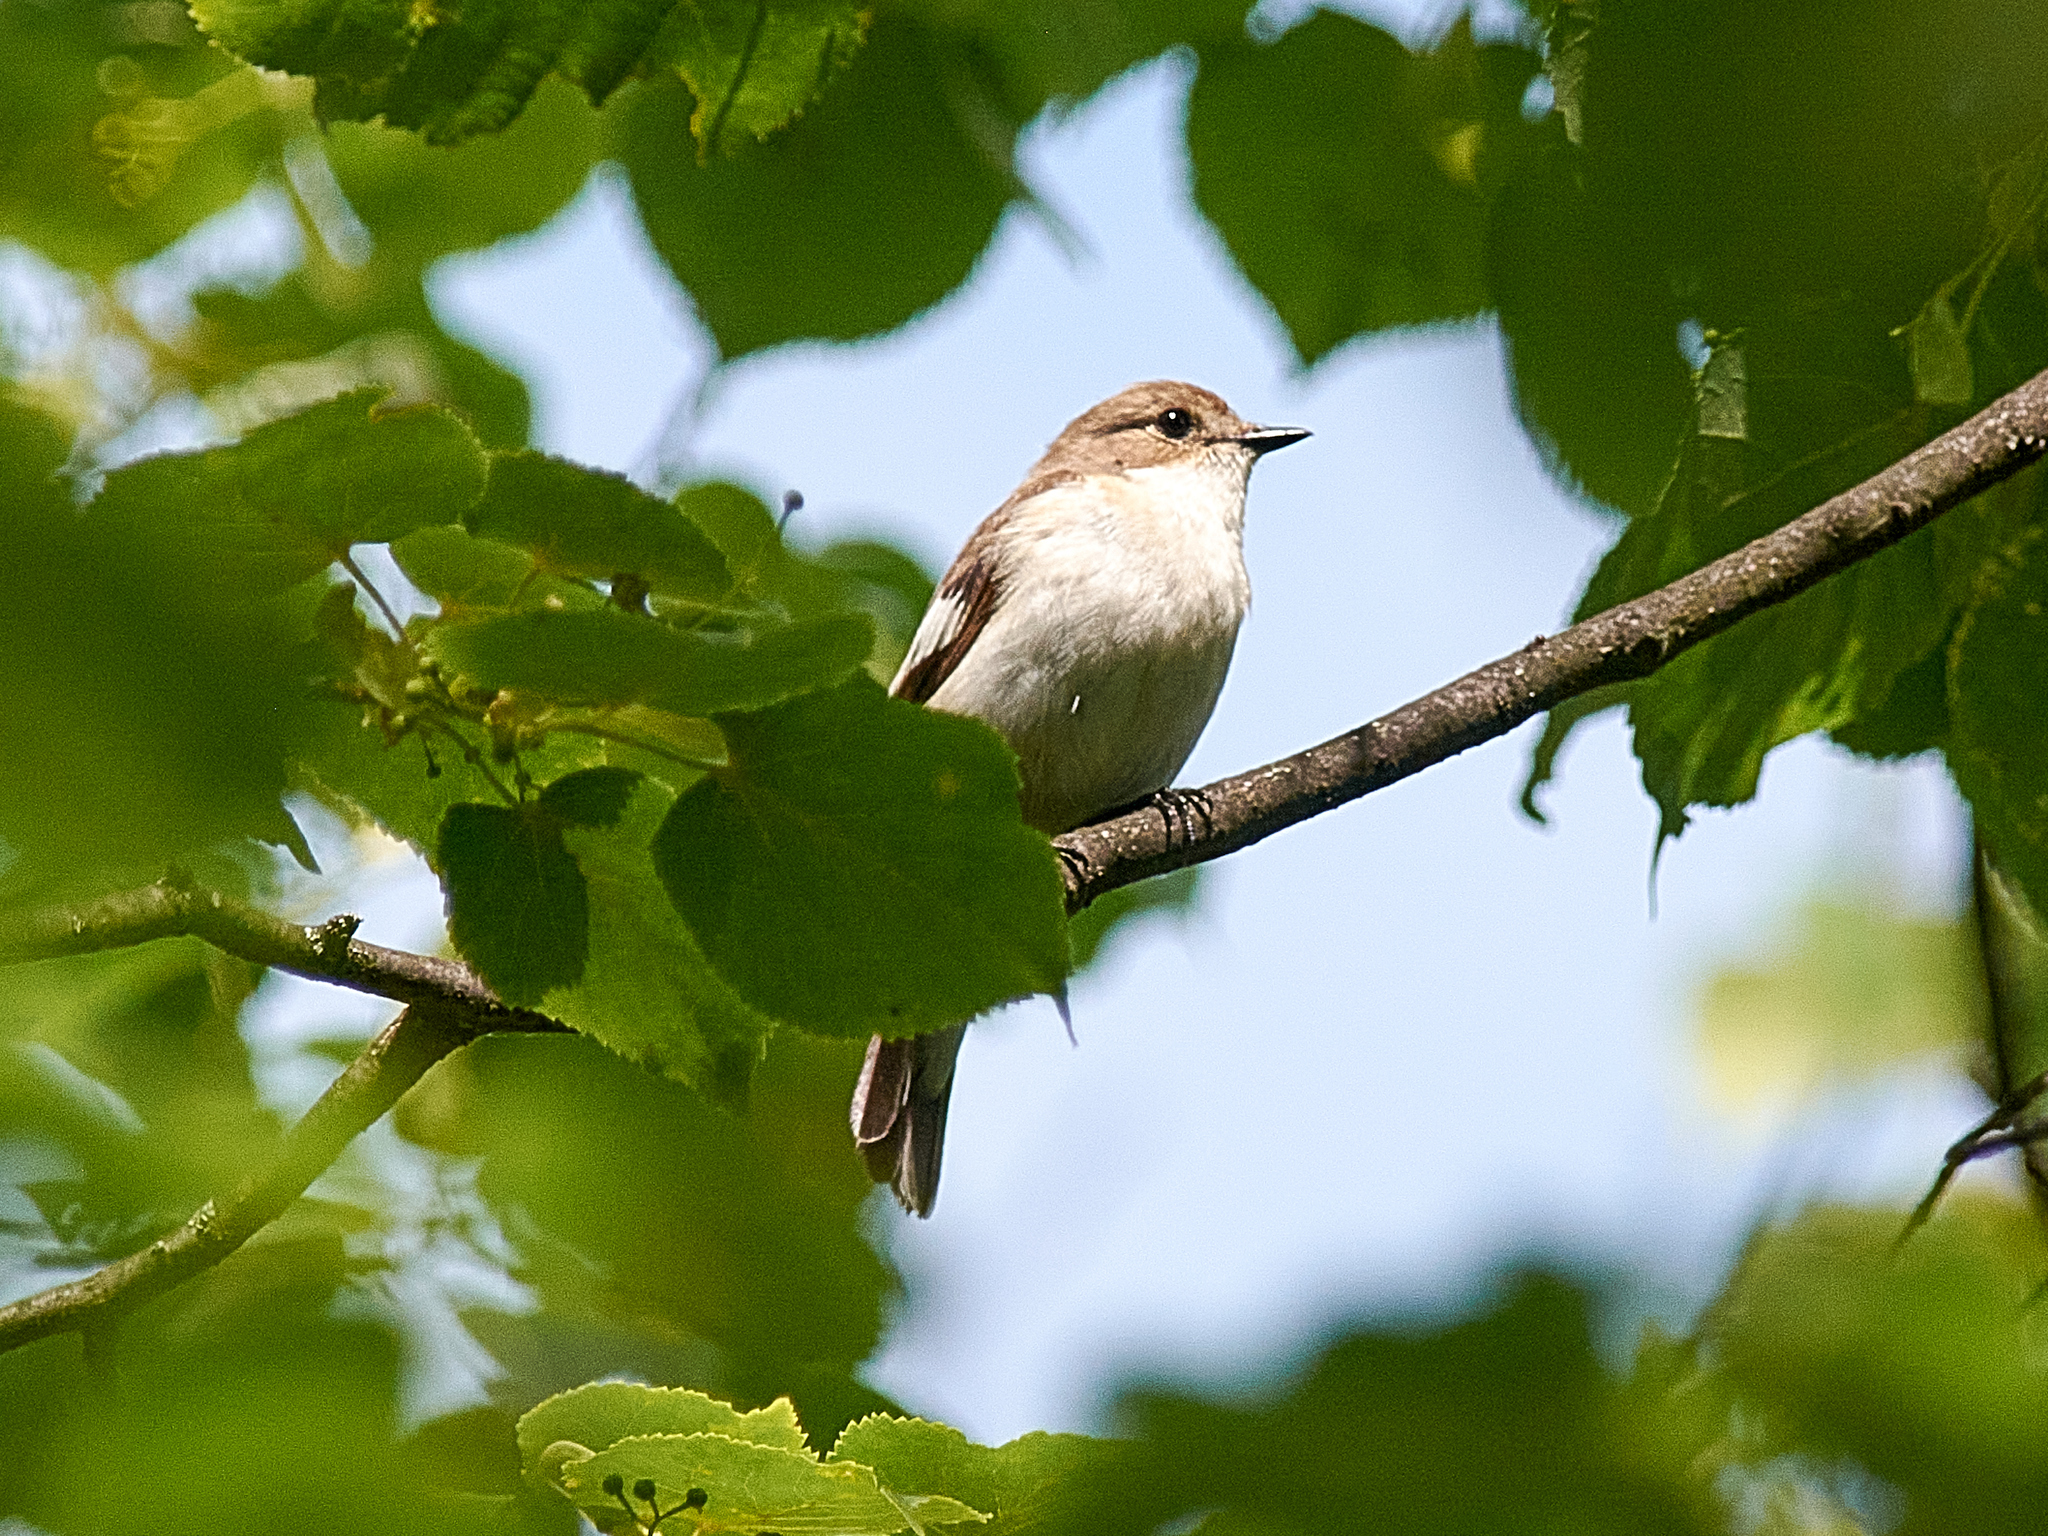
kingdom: Animalia
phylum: Chordata
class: Aves
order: Passeriformes
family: Muscicapidae
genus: Ficedula
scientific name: Ficedula hypoleuca
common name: European pied flycatcher
